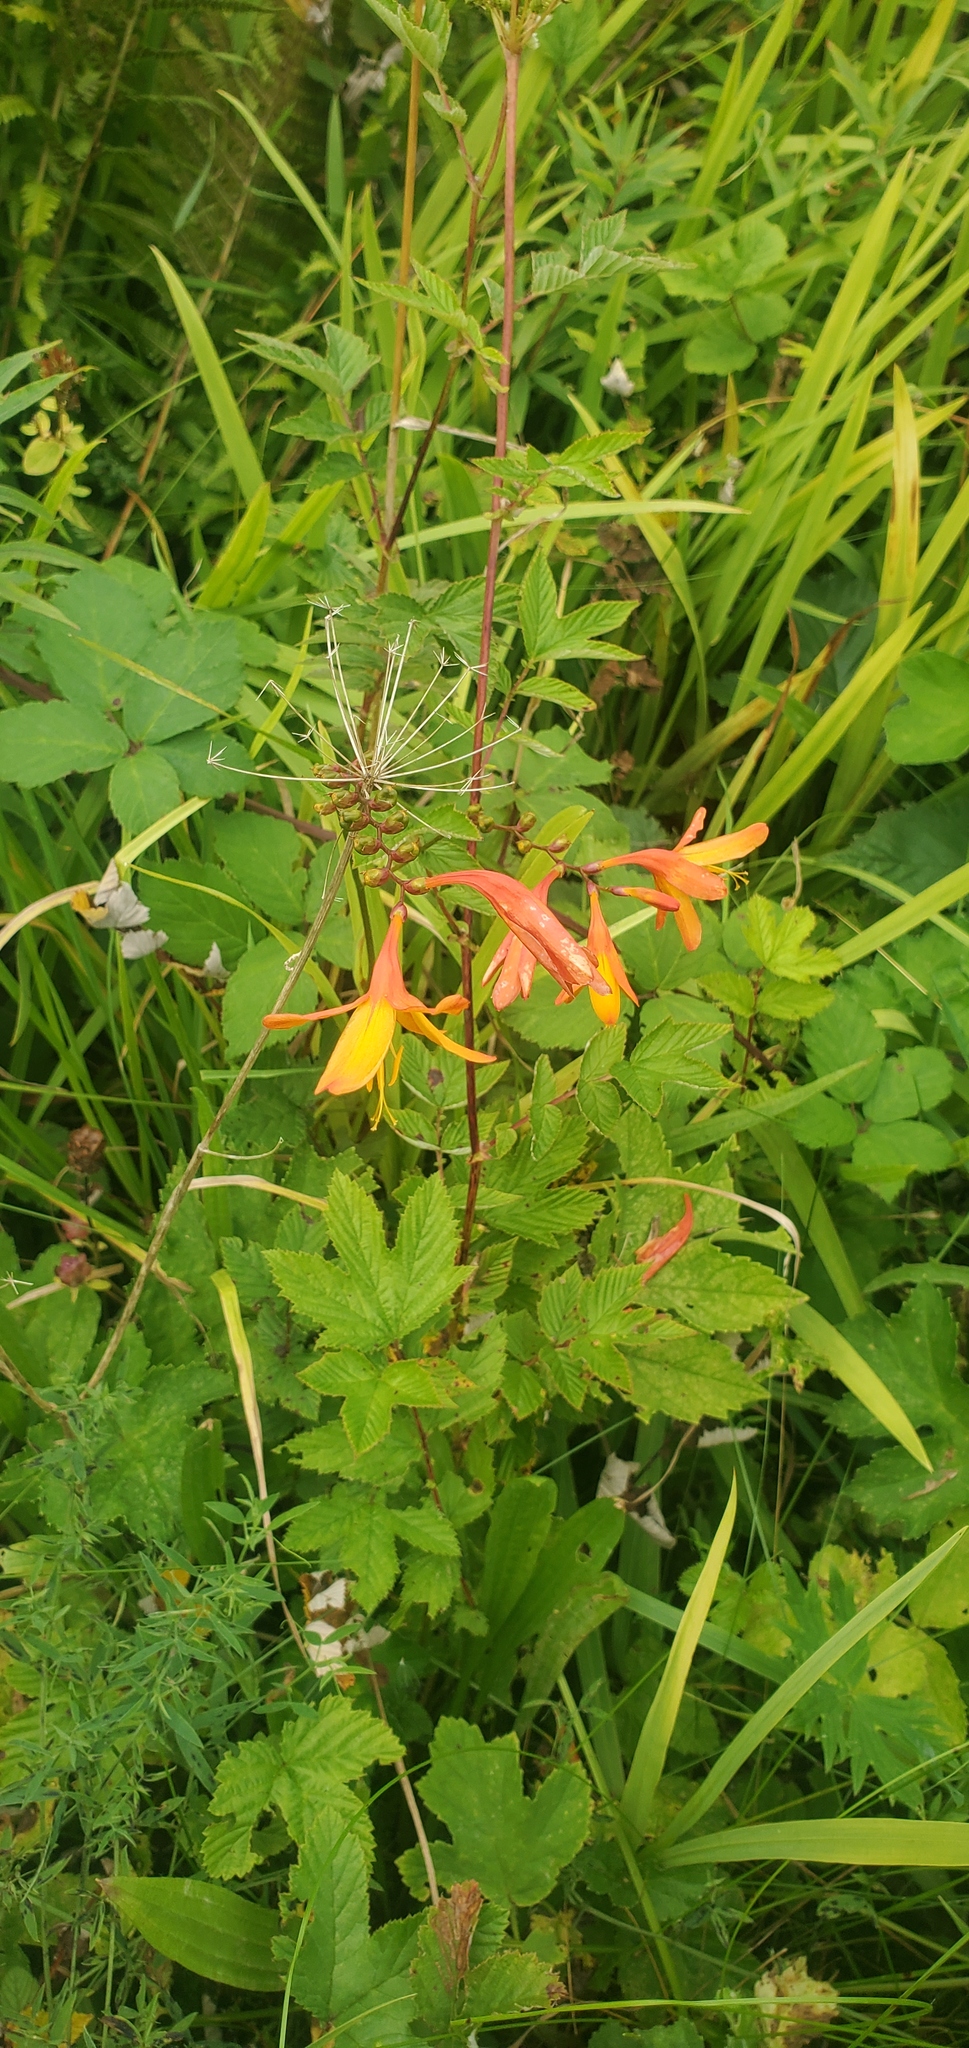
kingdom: Plantae
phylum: Tracheophyta
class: Liliopsida
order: Asparagales
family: Iridaceae
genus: Crocosmia
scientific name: Crocosmia crocosmiiflora
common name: Montbretia
